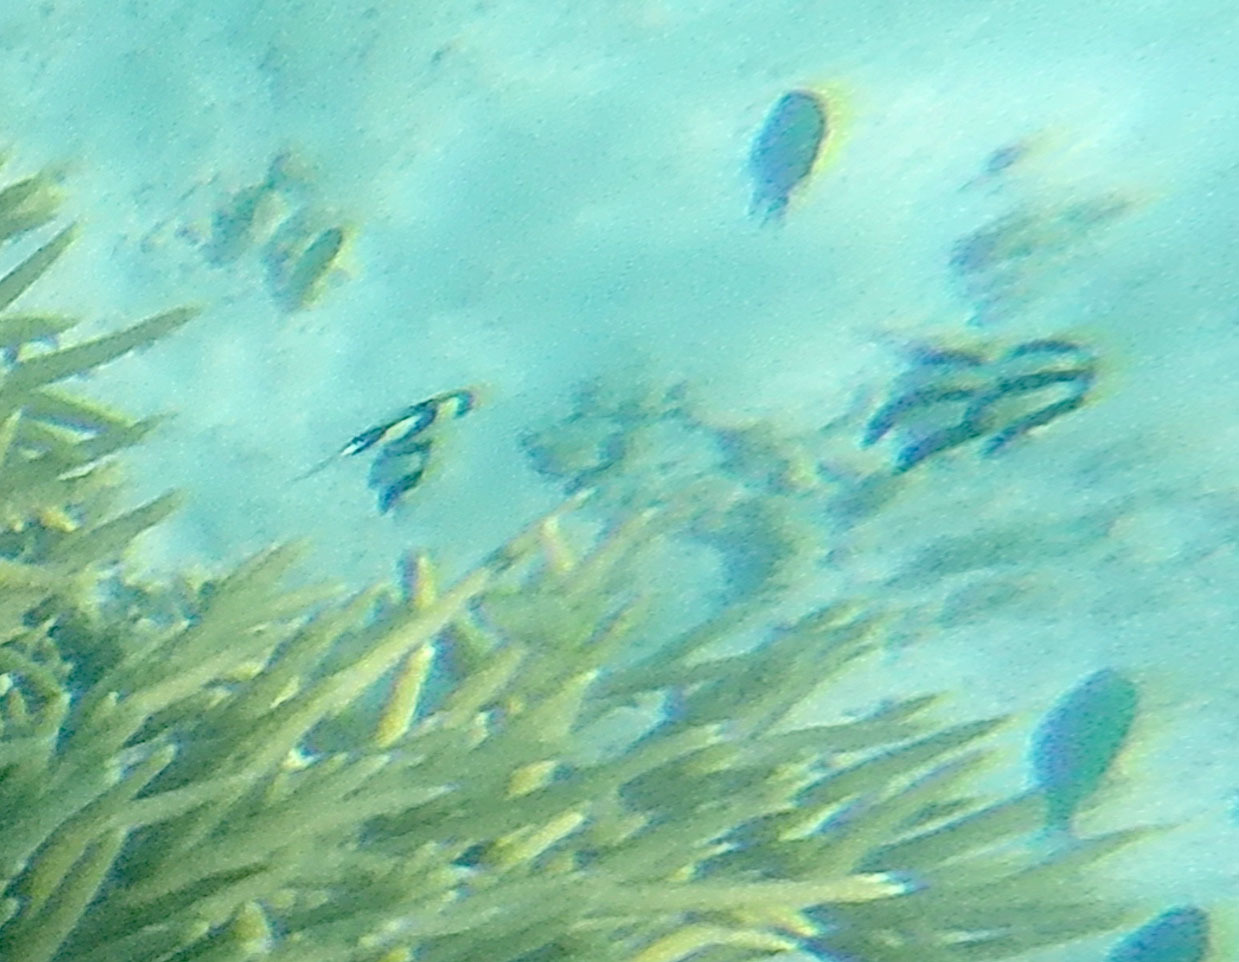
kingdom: Animalia
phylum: Chordata
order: Perciformes
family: Pomacentridae
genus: Dascyllus
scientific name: Dascyllus aruanus
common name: Humbug dascyllus
